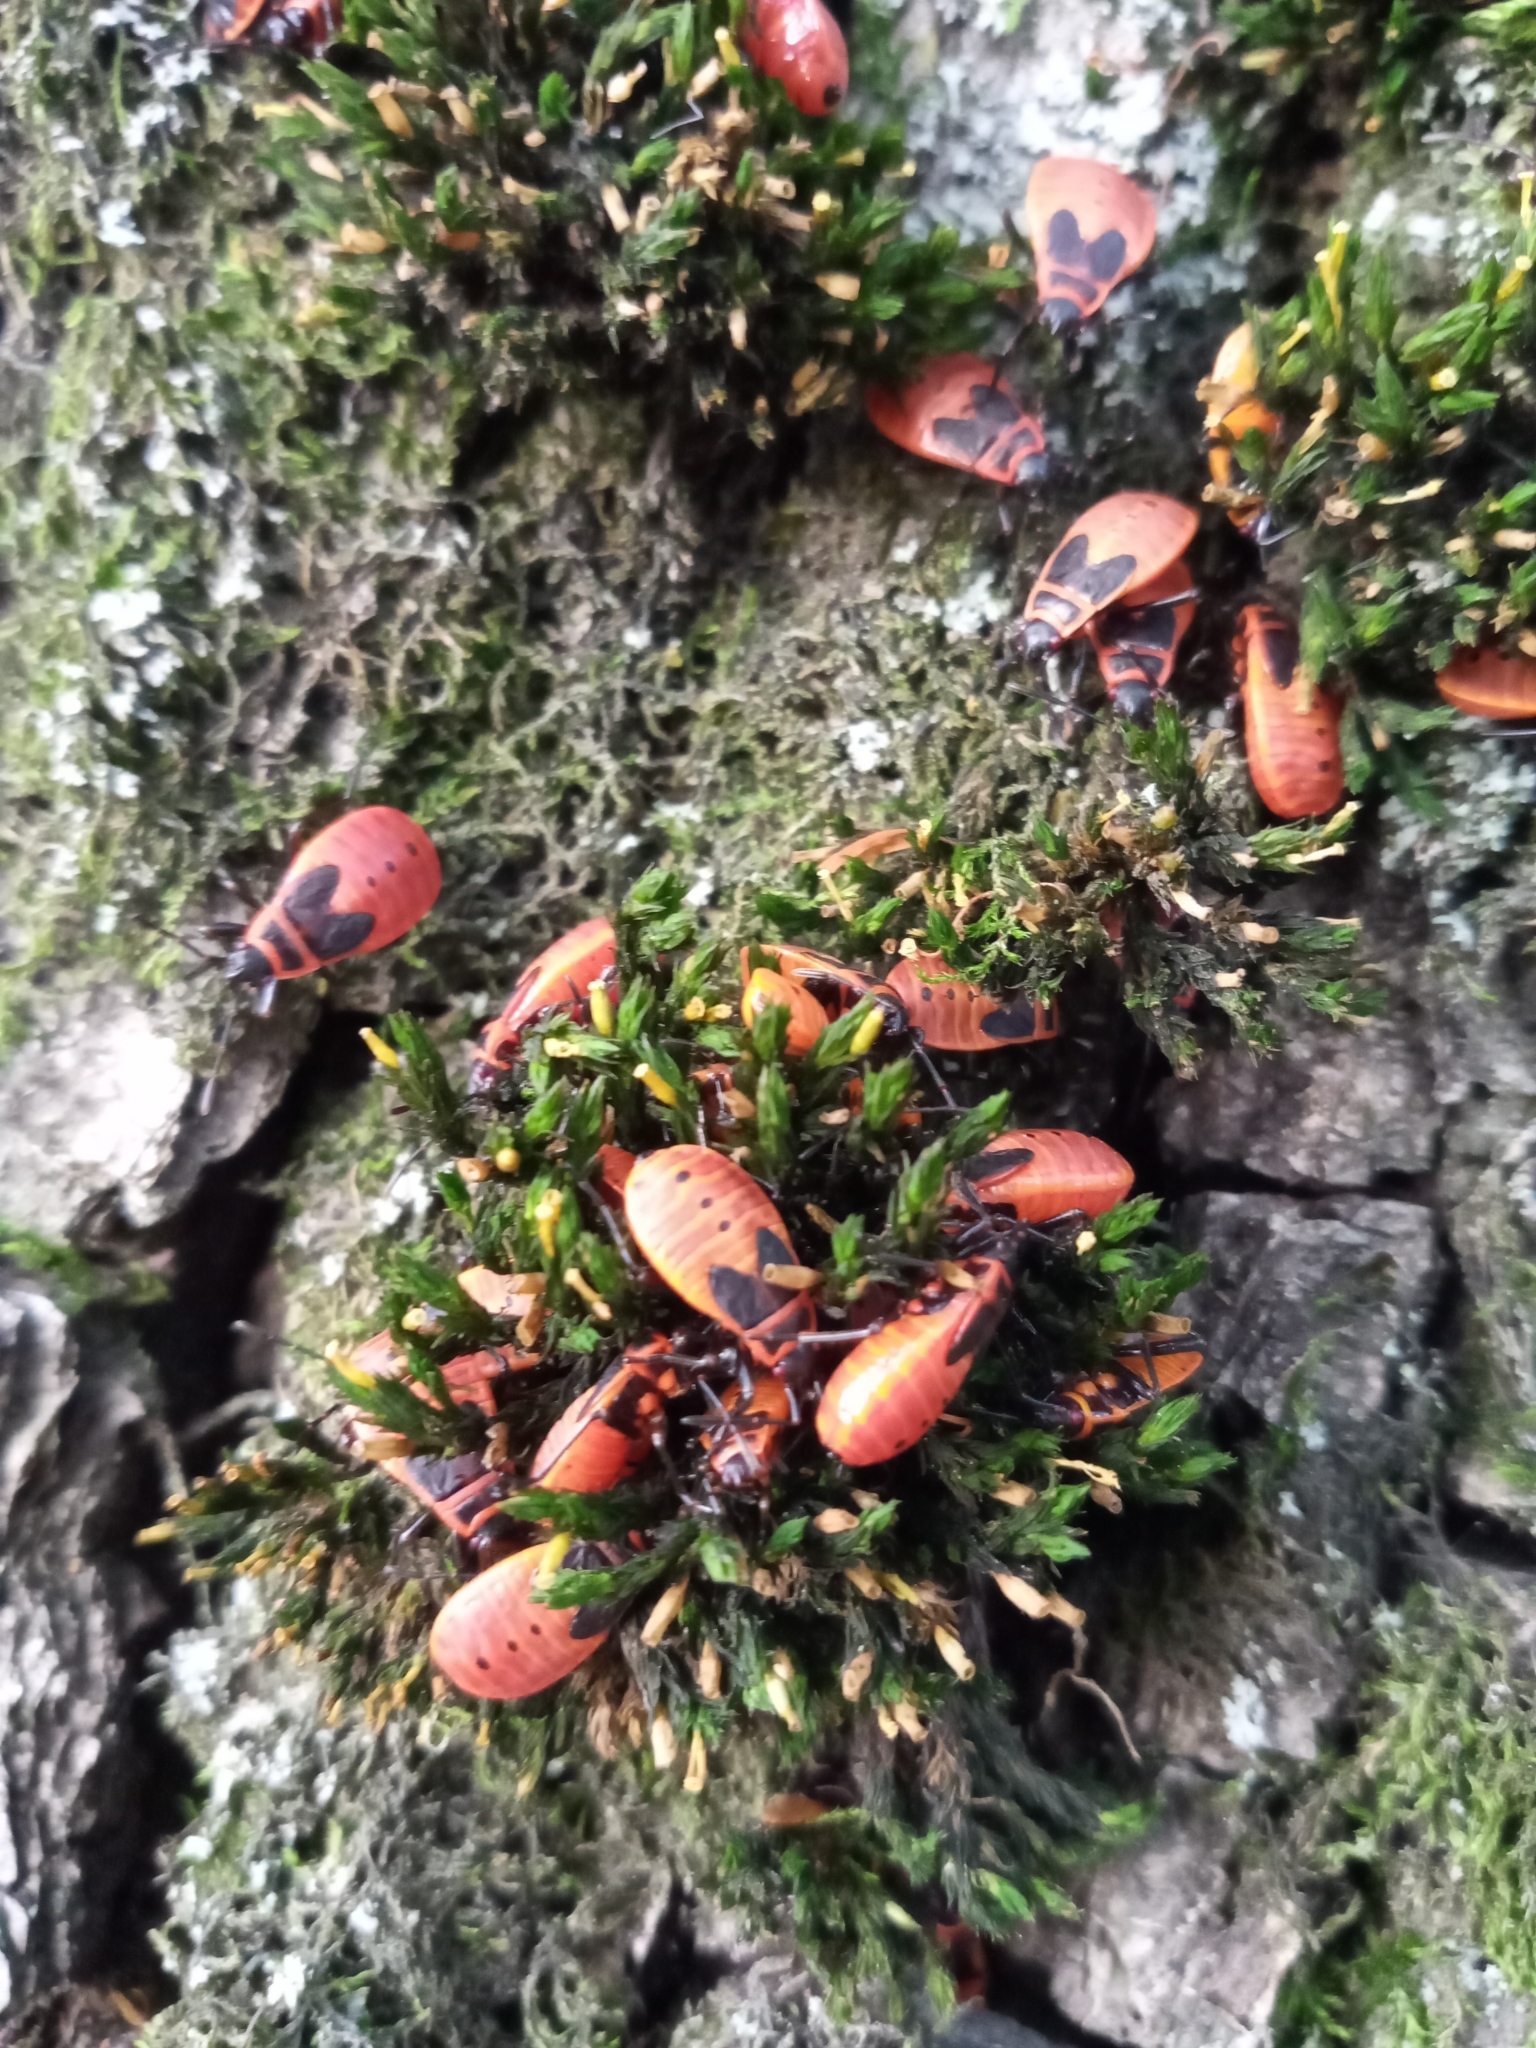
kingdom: Animalia
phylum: Arthropoda
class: Insecta
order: Hemiptera
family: Pyrrhocoridae
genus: Pyrrhocoris
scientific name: Pyrrhocoris apterus
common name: Firebug
